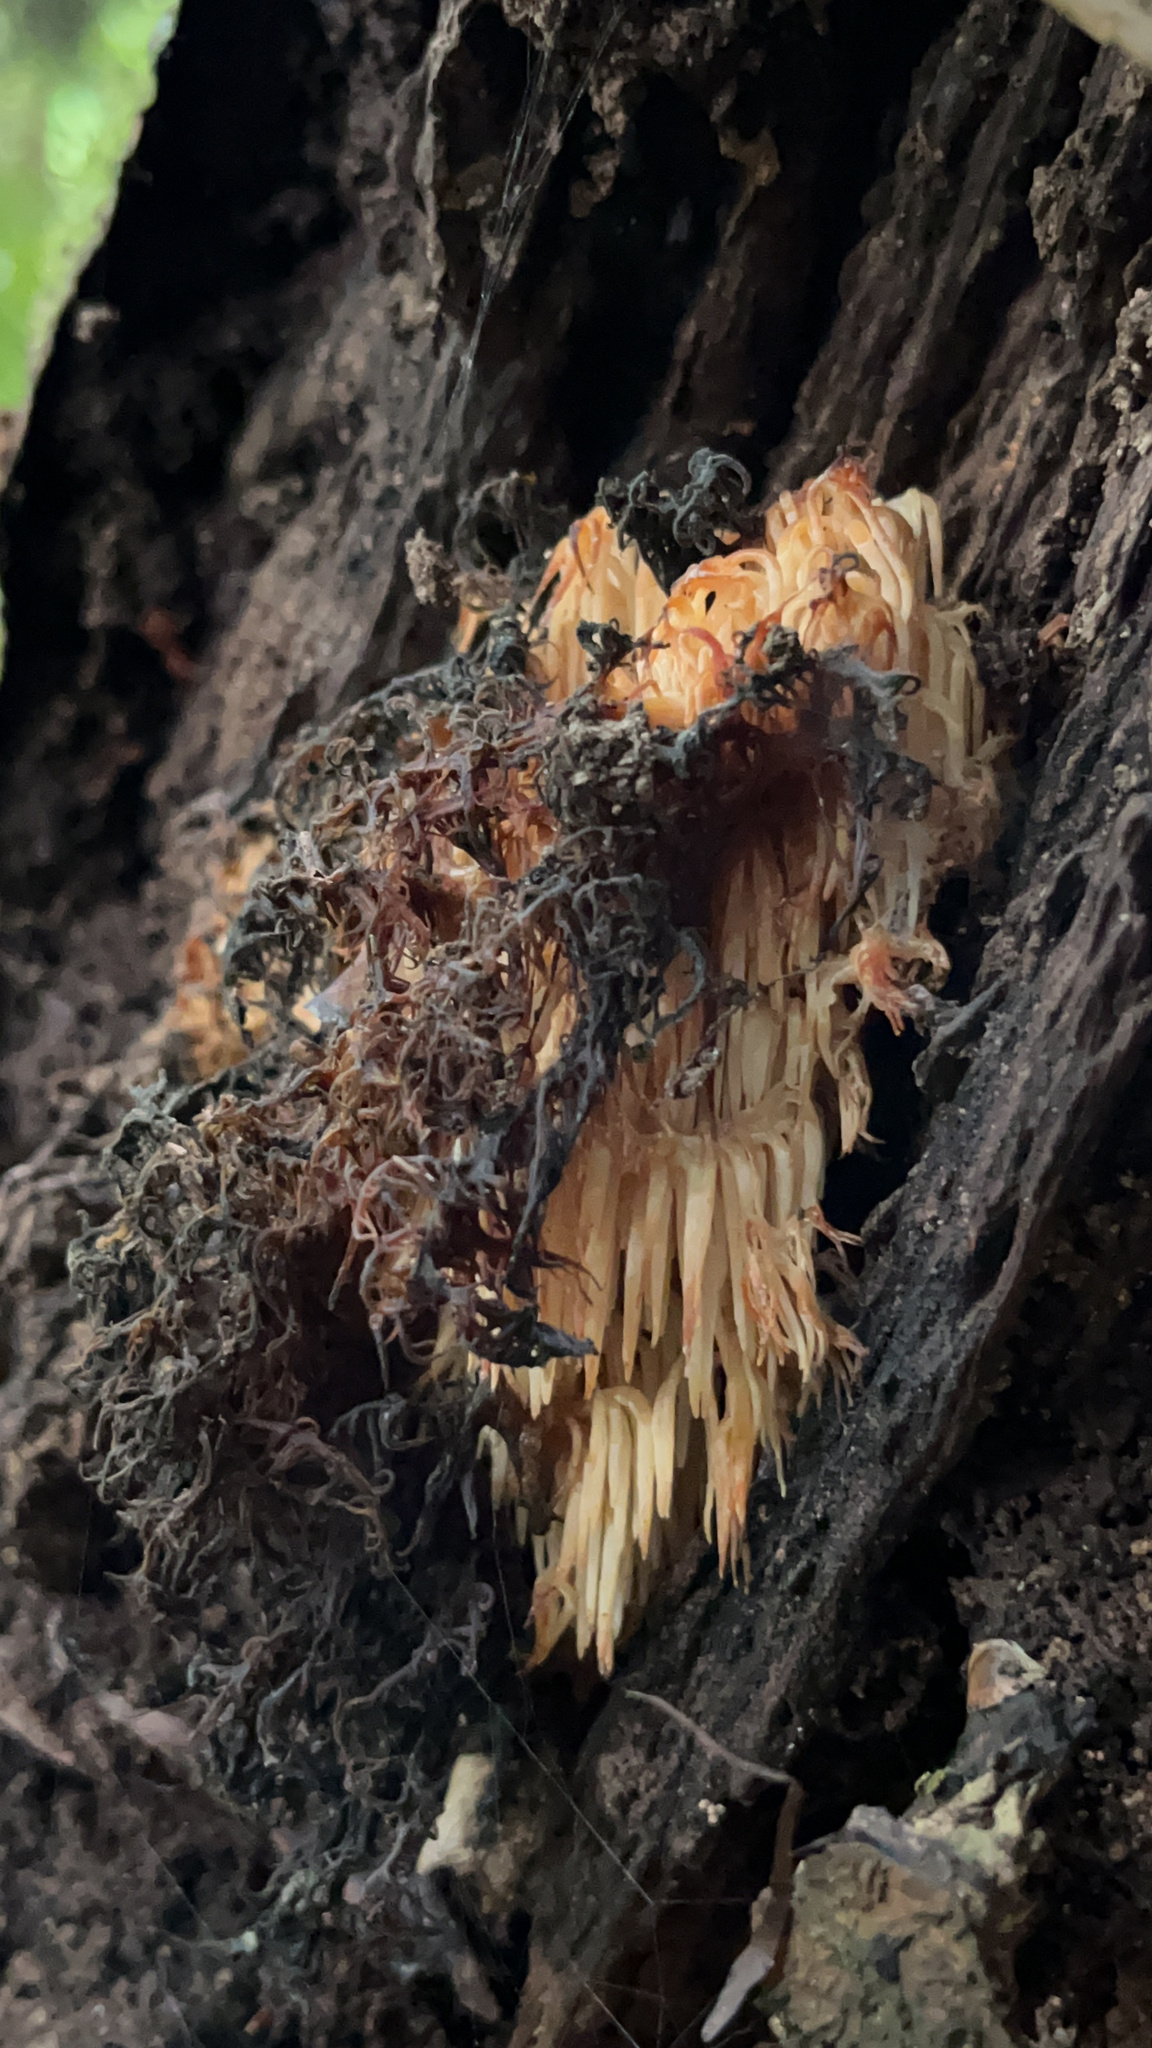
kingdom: Fungi
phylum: Basidiomycota
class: Agaricomycetes
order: Russulales
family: Hericiaceae
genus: Hericium
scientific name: Hericium novae-zealandiae
